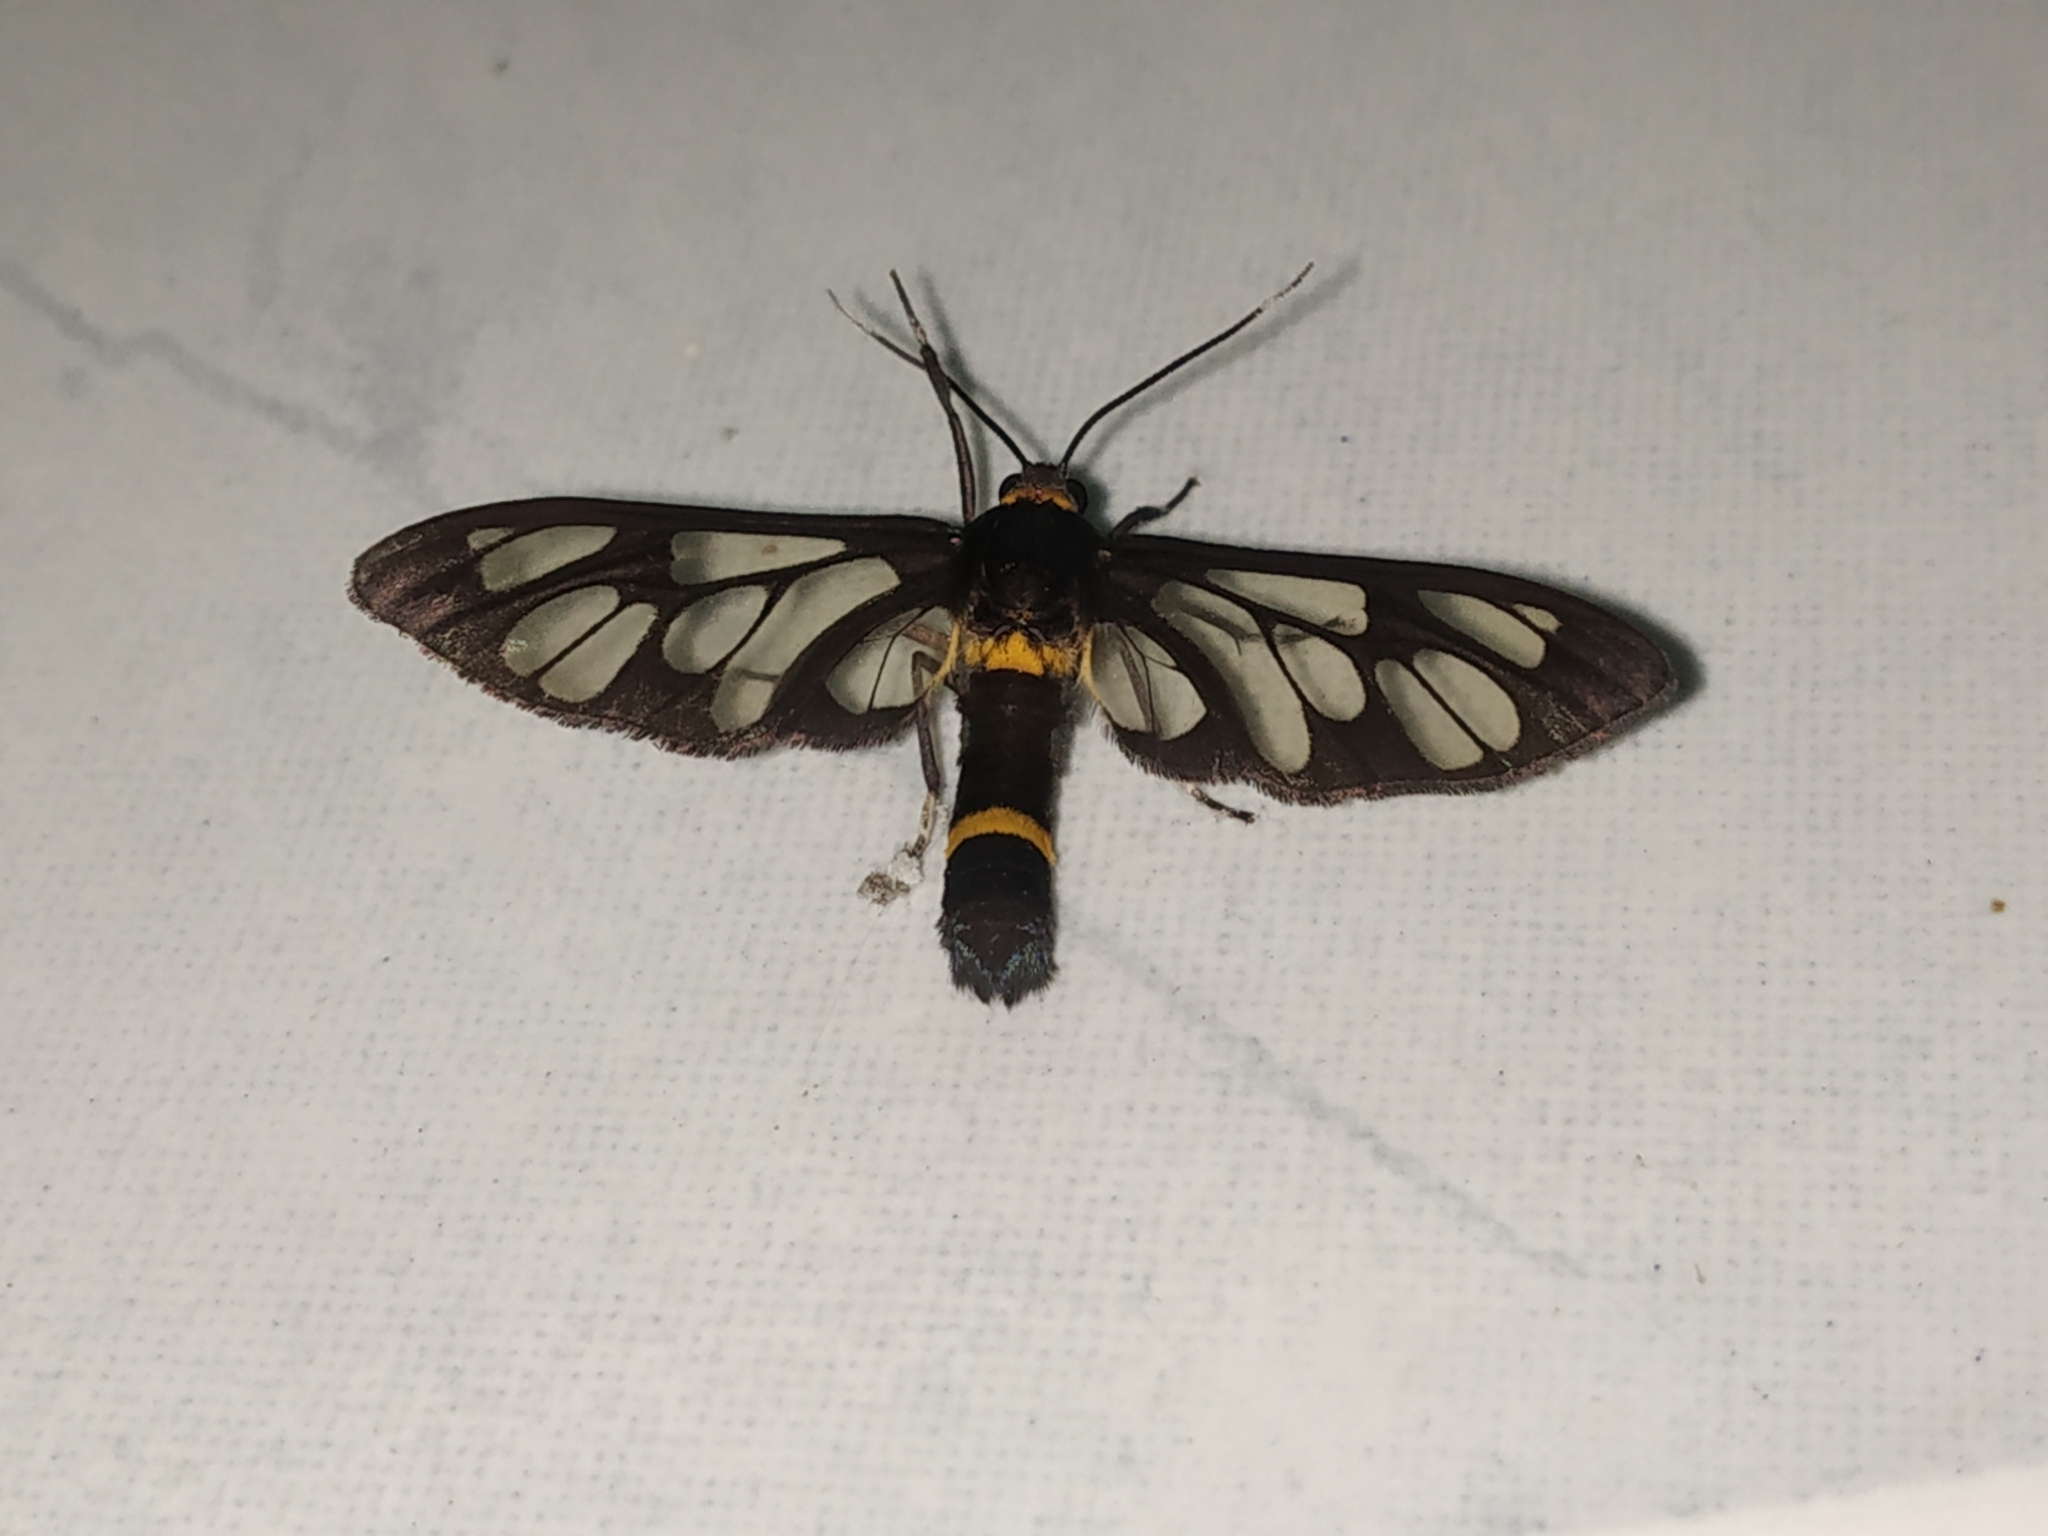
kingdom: Animalia
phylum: Arthropoda
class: Insecta
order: Lepidoptera
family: Erebidae
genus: Syntomoides
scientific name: Syntomoides imaon
